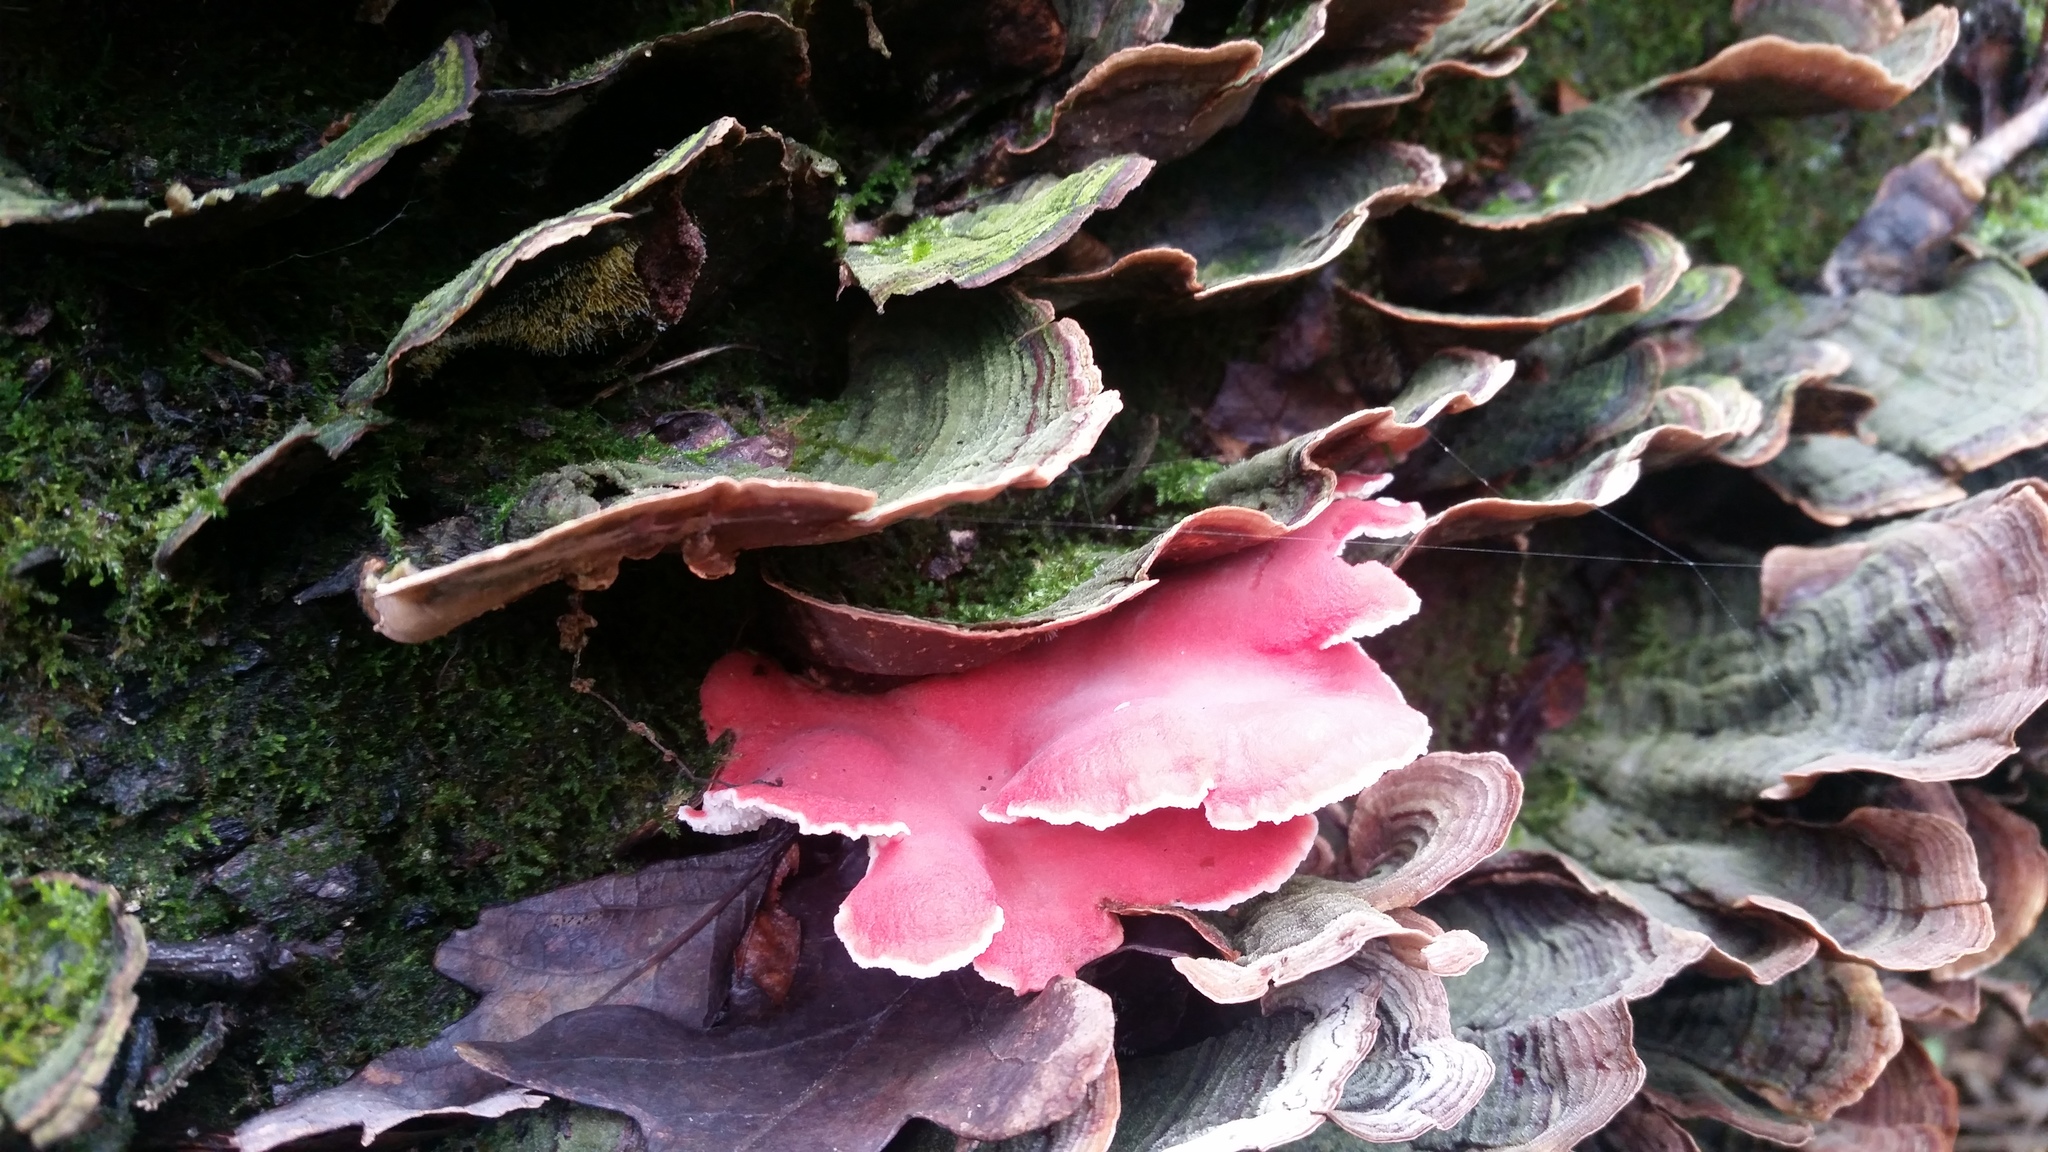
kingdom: Fungi
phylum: Basidiomycota
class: Agaricomycetes
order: Polyporales
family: Irpicaceae
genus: Byssomerulius
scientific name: Byssomerulius incarnatus
